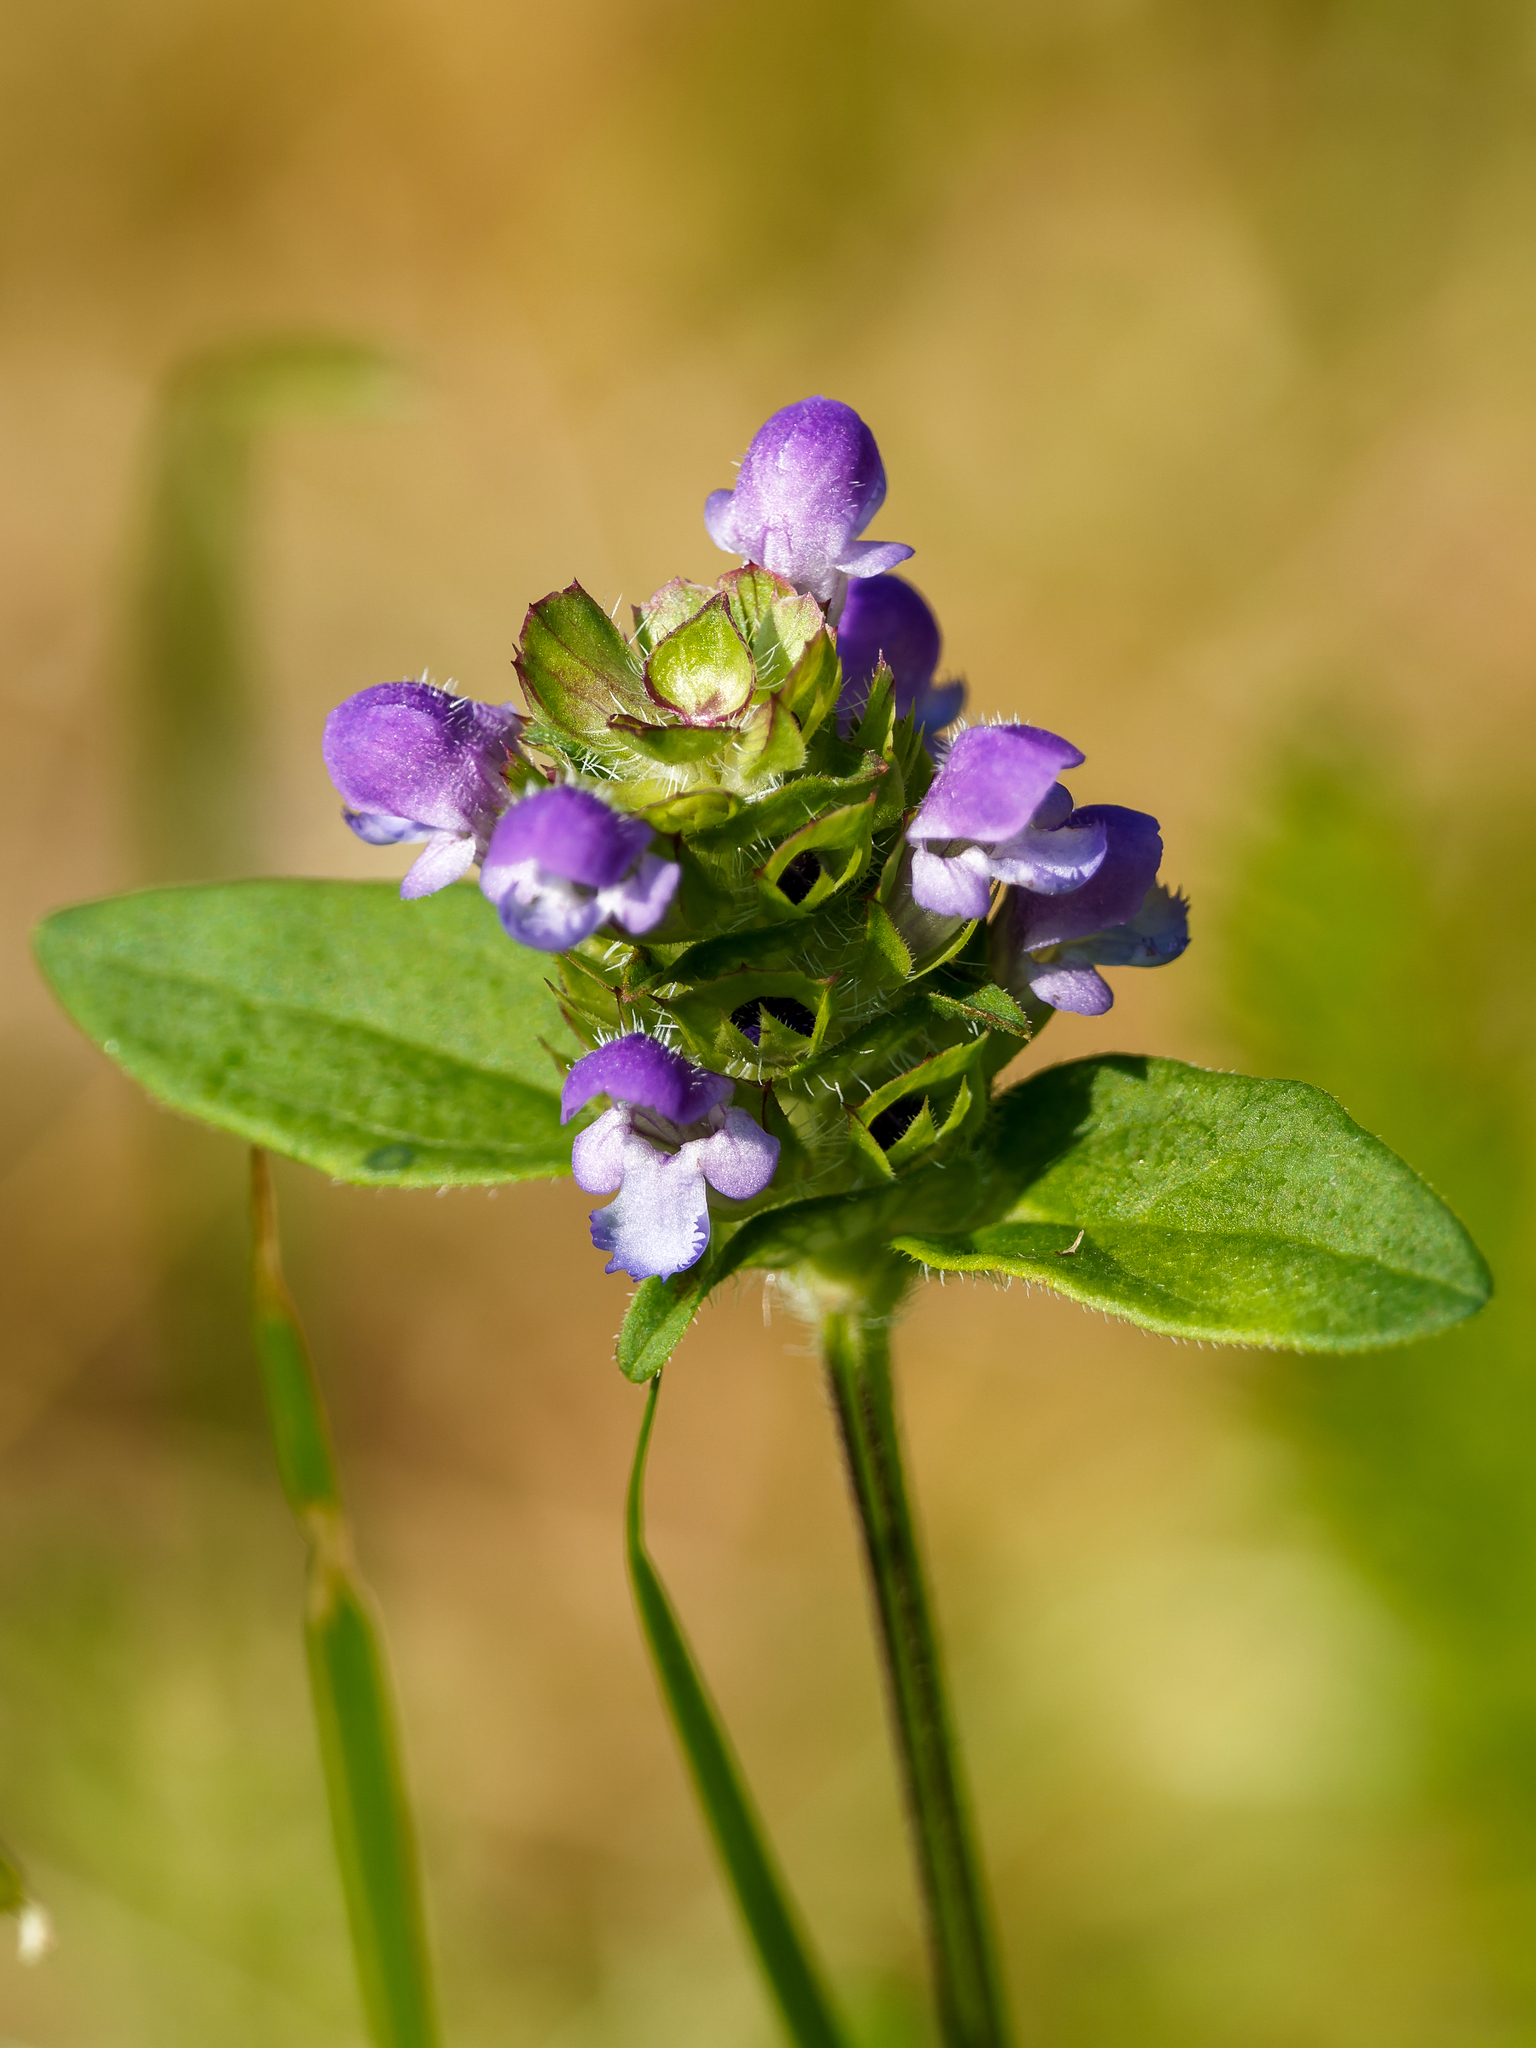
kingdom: Plantae
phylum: Tracheophyta
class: Magnoliopsida
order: Lamiales
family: Lamiaceae
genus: Prunella
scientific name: Prunella vulgaris
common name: Heal-all
